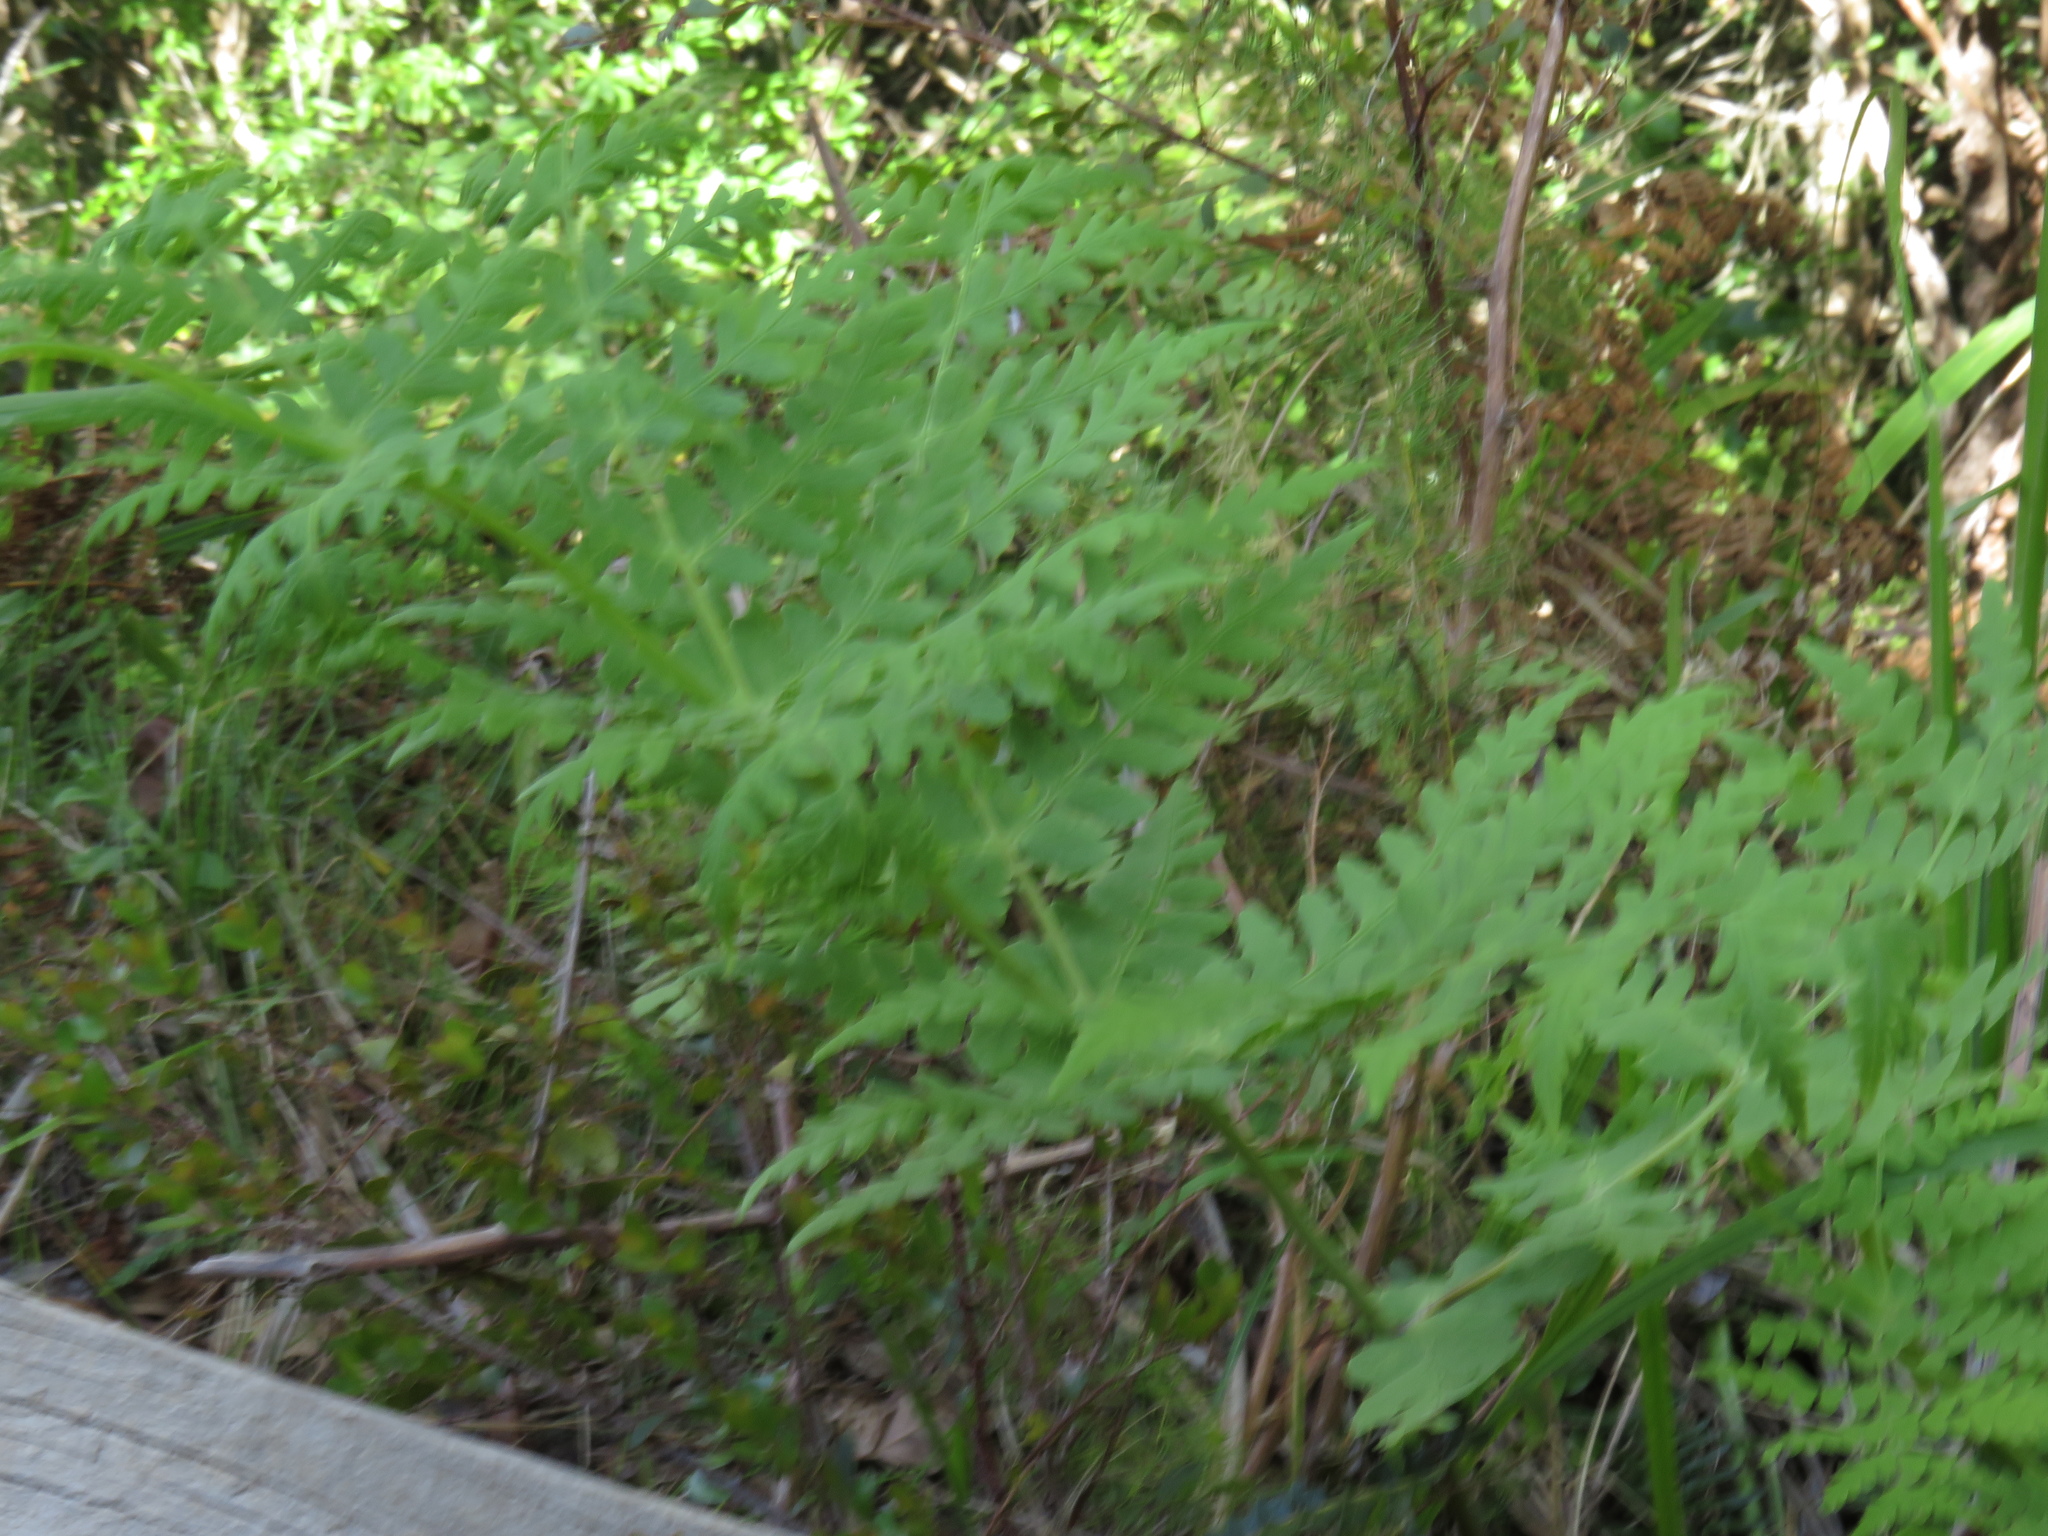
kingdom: Plantae
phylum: Tracheophyta
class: Polypodiopsida
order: Polypodiales
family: Dennstaedtiaceae
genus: Histiopteris
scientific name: Histiopteris incisa
